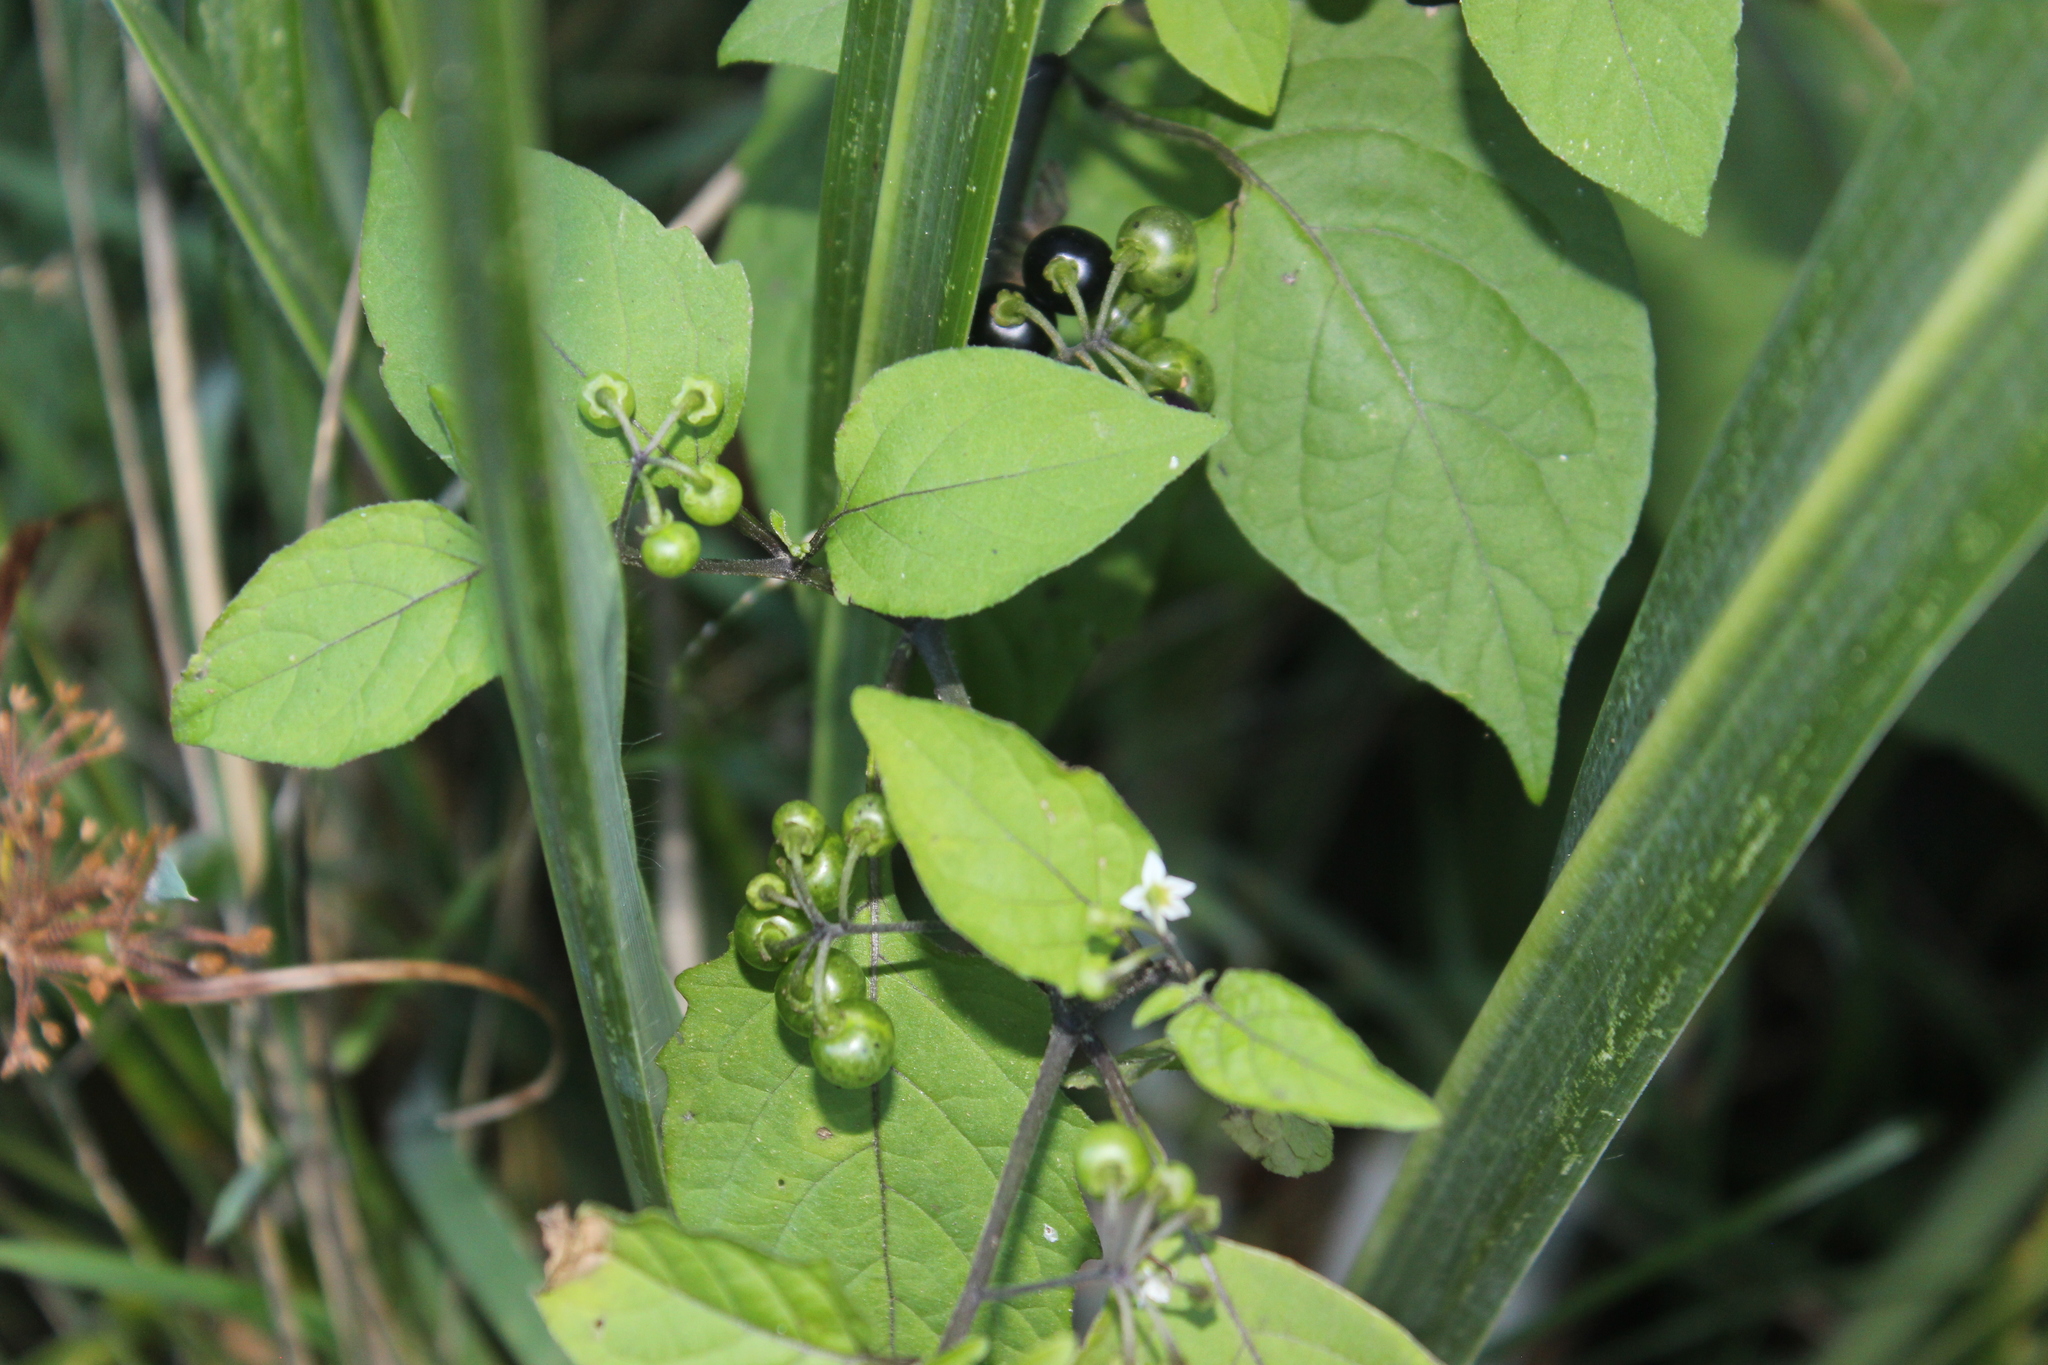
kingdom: Plantae
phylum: Tracheophyta
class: Magnoliopsida
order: Solanales
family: Solanaceae
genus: Solanum
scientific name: Solanum americanum
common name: American black nightshade
